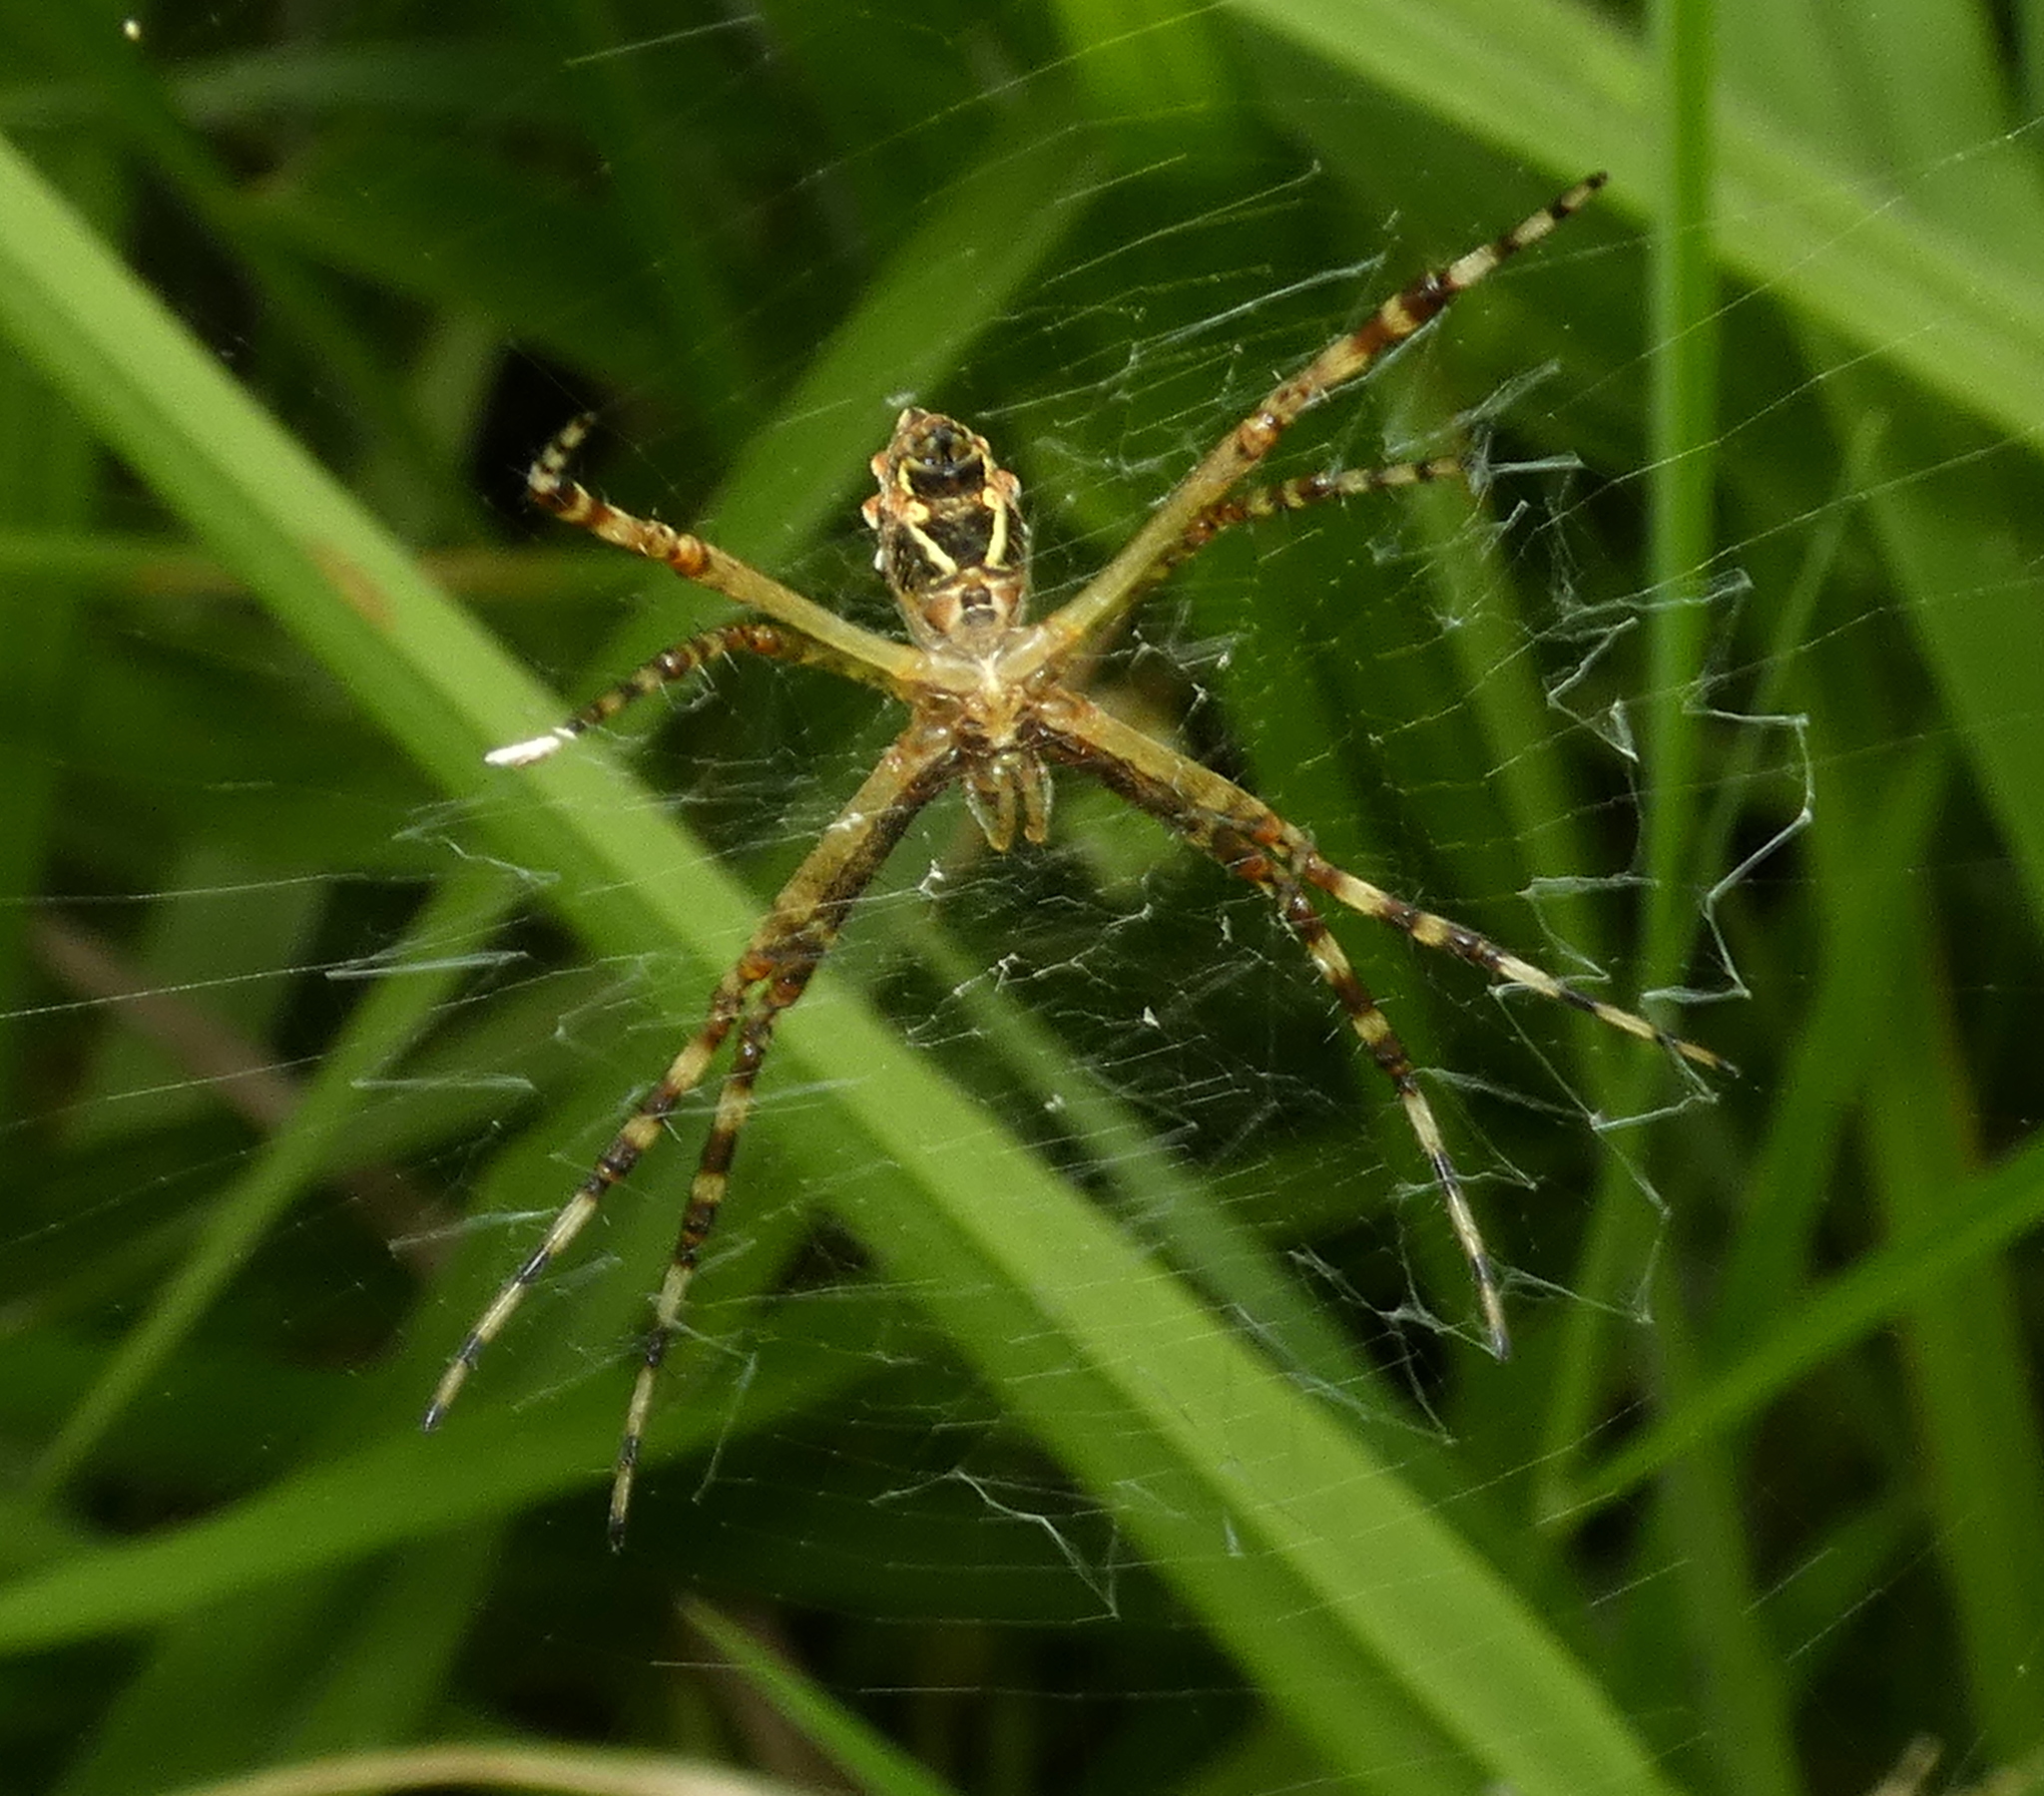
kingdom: Animalia
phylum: Arthropoda
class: Arachnida
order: Araneae
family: Araneidae
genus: Argiope
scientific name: Argiope argentata
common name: Orb weavers
